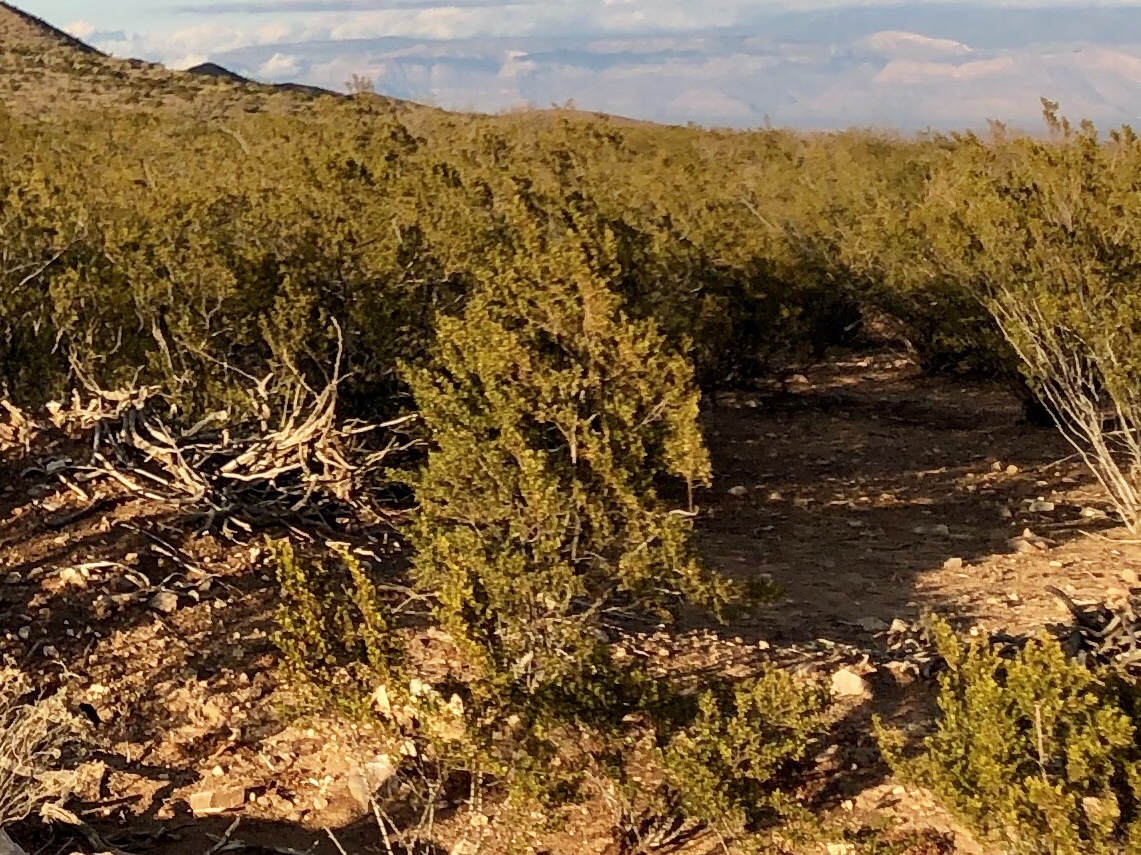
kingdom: Plantae
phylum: Tracheophyta
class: Magnoliopsida
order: Zygophyllales
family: Zygophyllaceae
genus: Larrea
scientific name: Larrea tridentata
